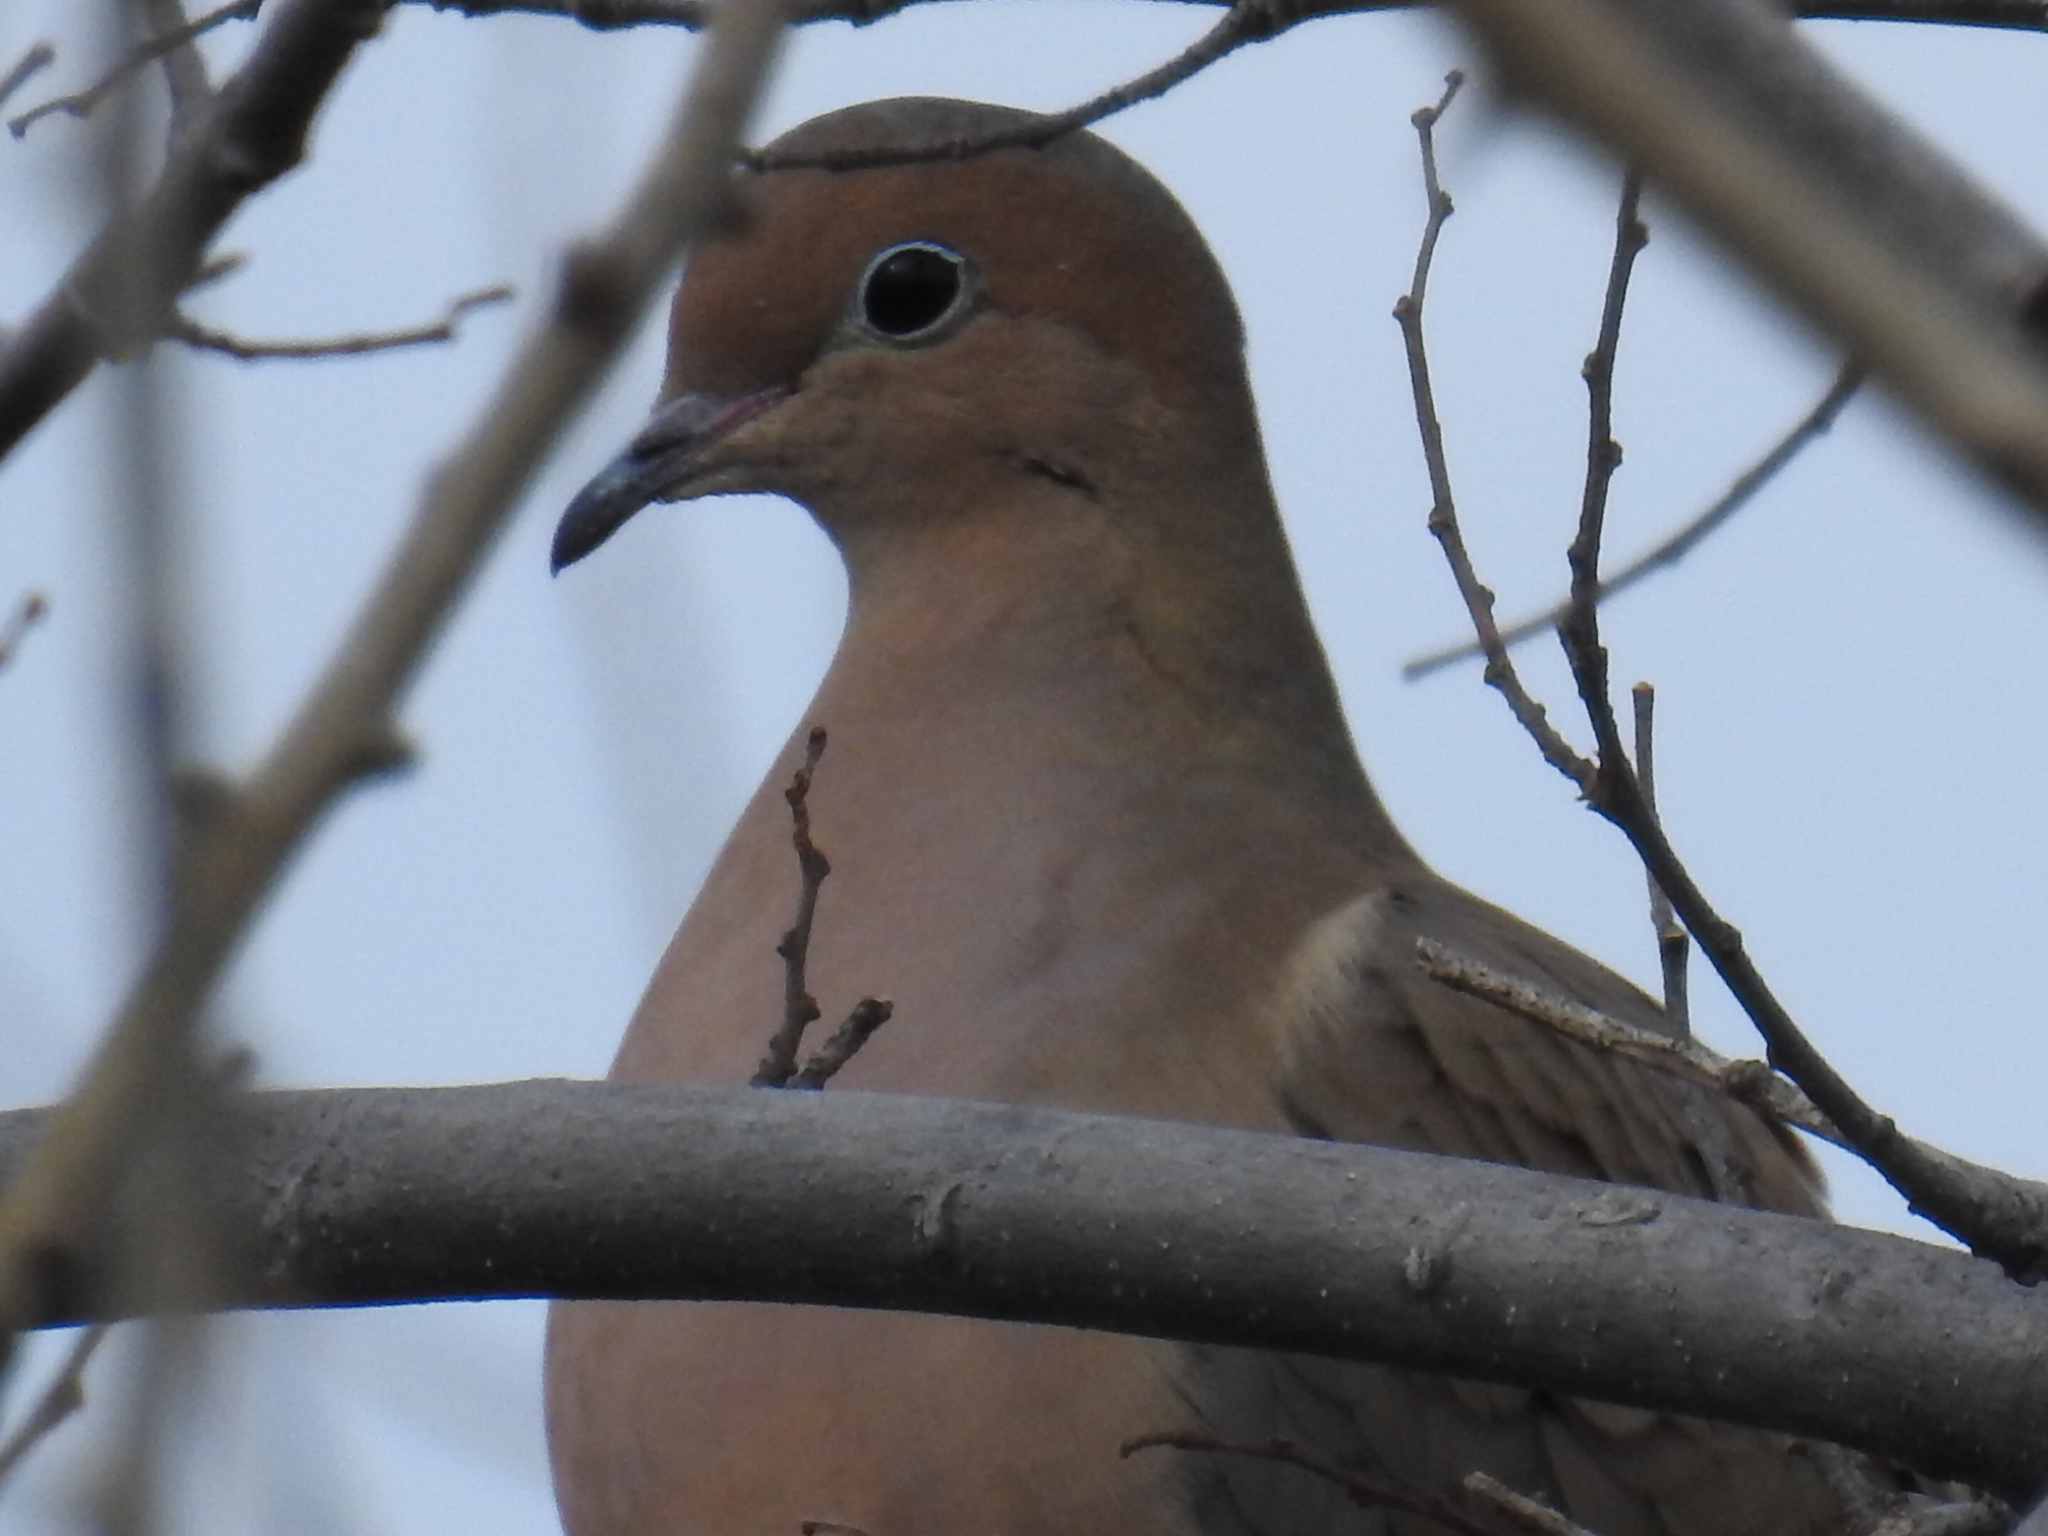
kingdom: Animalia
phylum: Chordata
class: Aves
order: Columbiformes
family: Columbidae
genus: Zenaida
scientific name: Zenaida macroura
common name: Mourning dove
